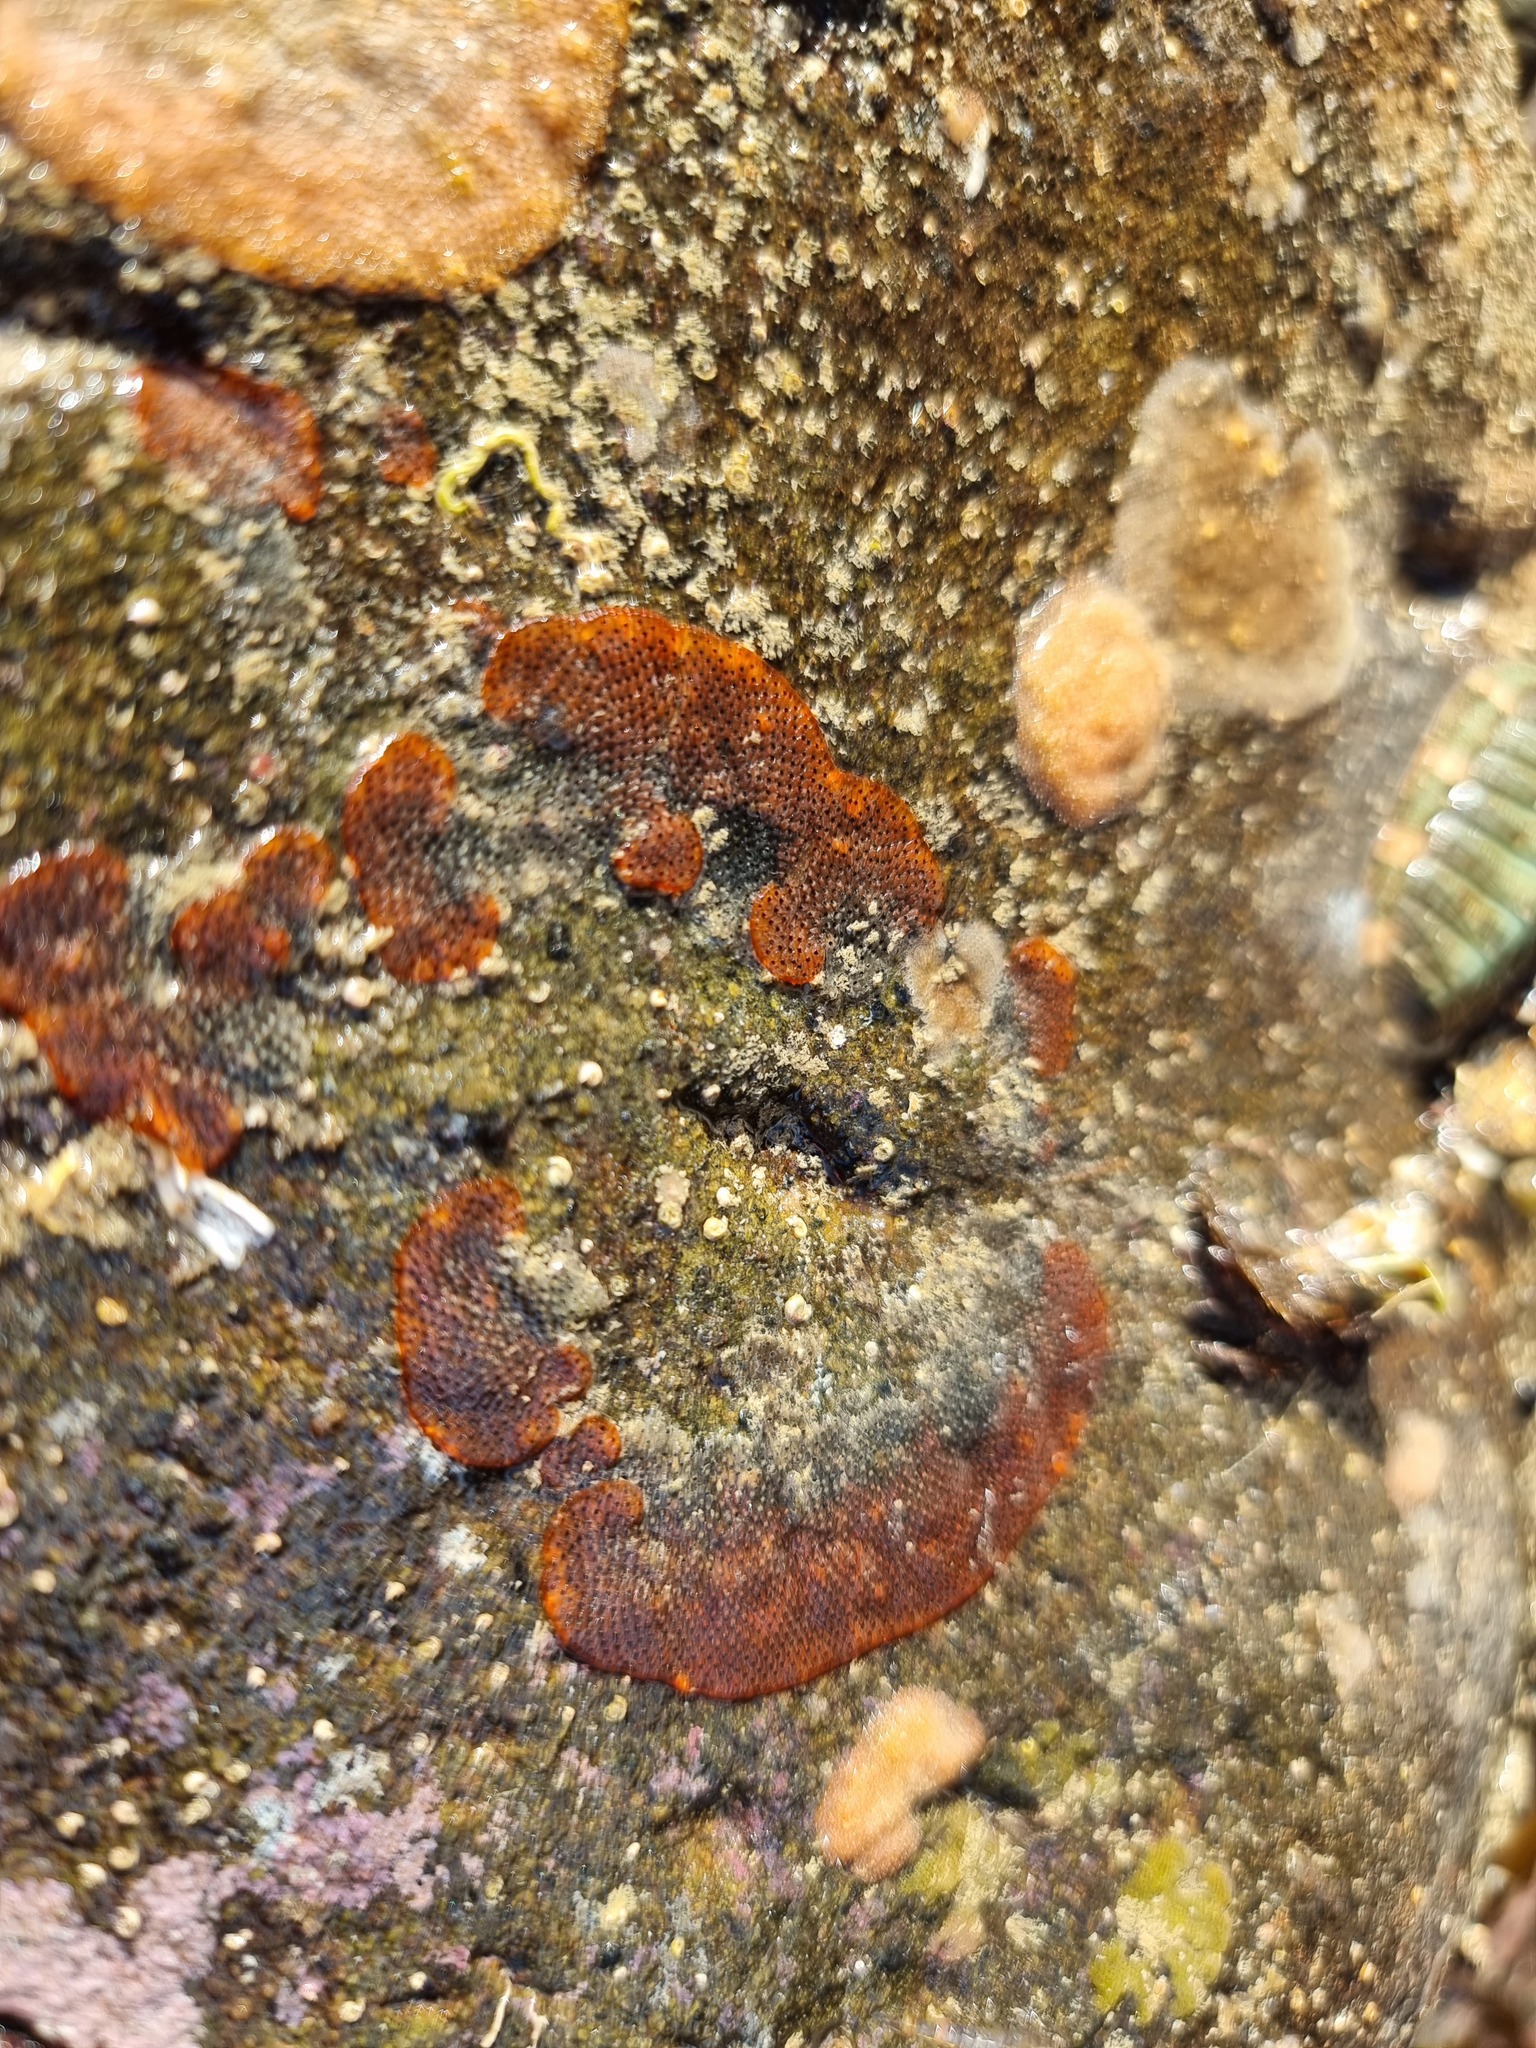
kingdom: Animalia
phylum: Bryozoa
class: Gymnolaemata
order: Cheilostomatida
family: Watersiporidae
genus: Watersipora
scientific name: Watersipora subatra
